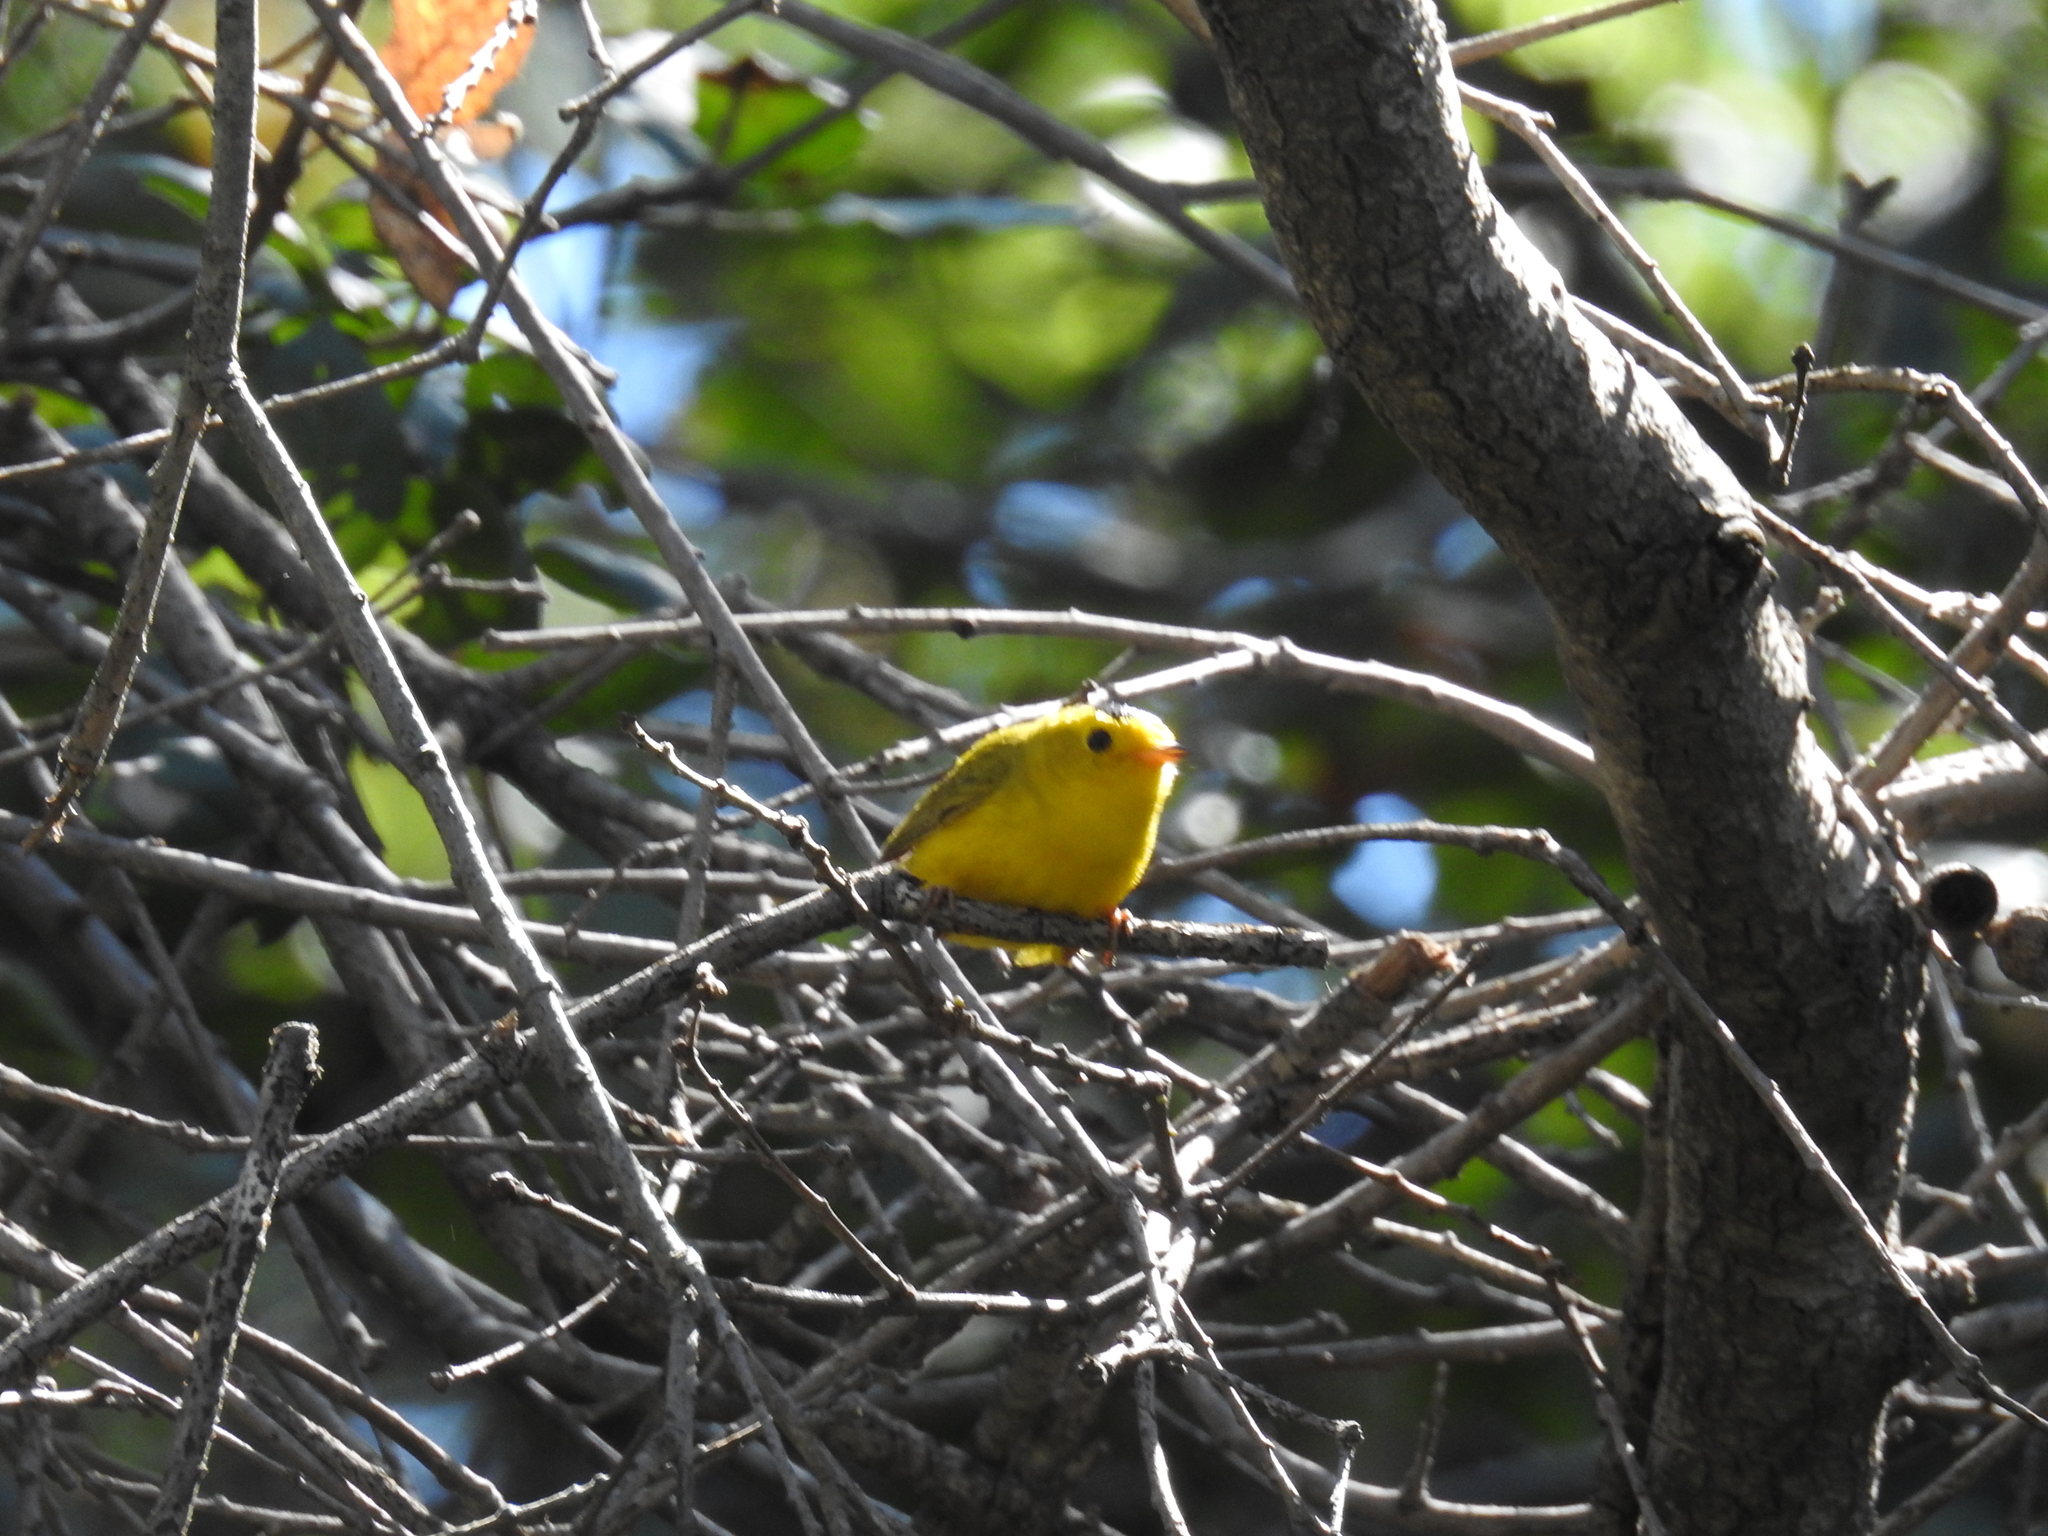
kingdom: Animalia
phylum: Chordata
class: Aves
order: Passeriformes
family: Parulidae
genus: Cardellina
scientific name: Cardellina pusilla
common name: Wilson's warbler
